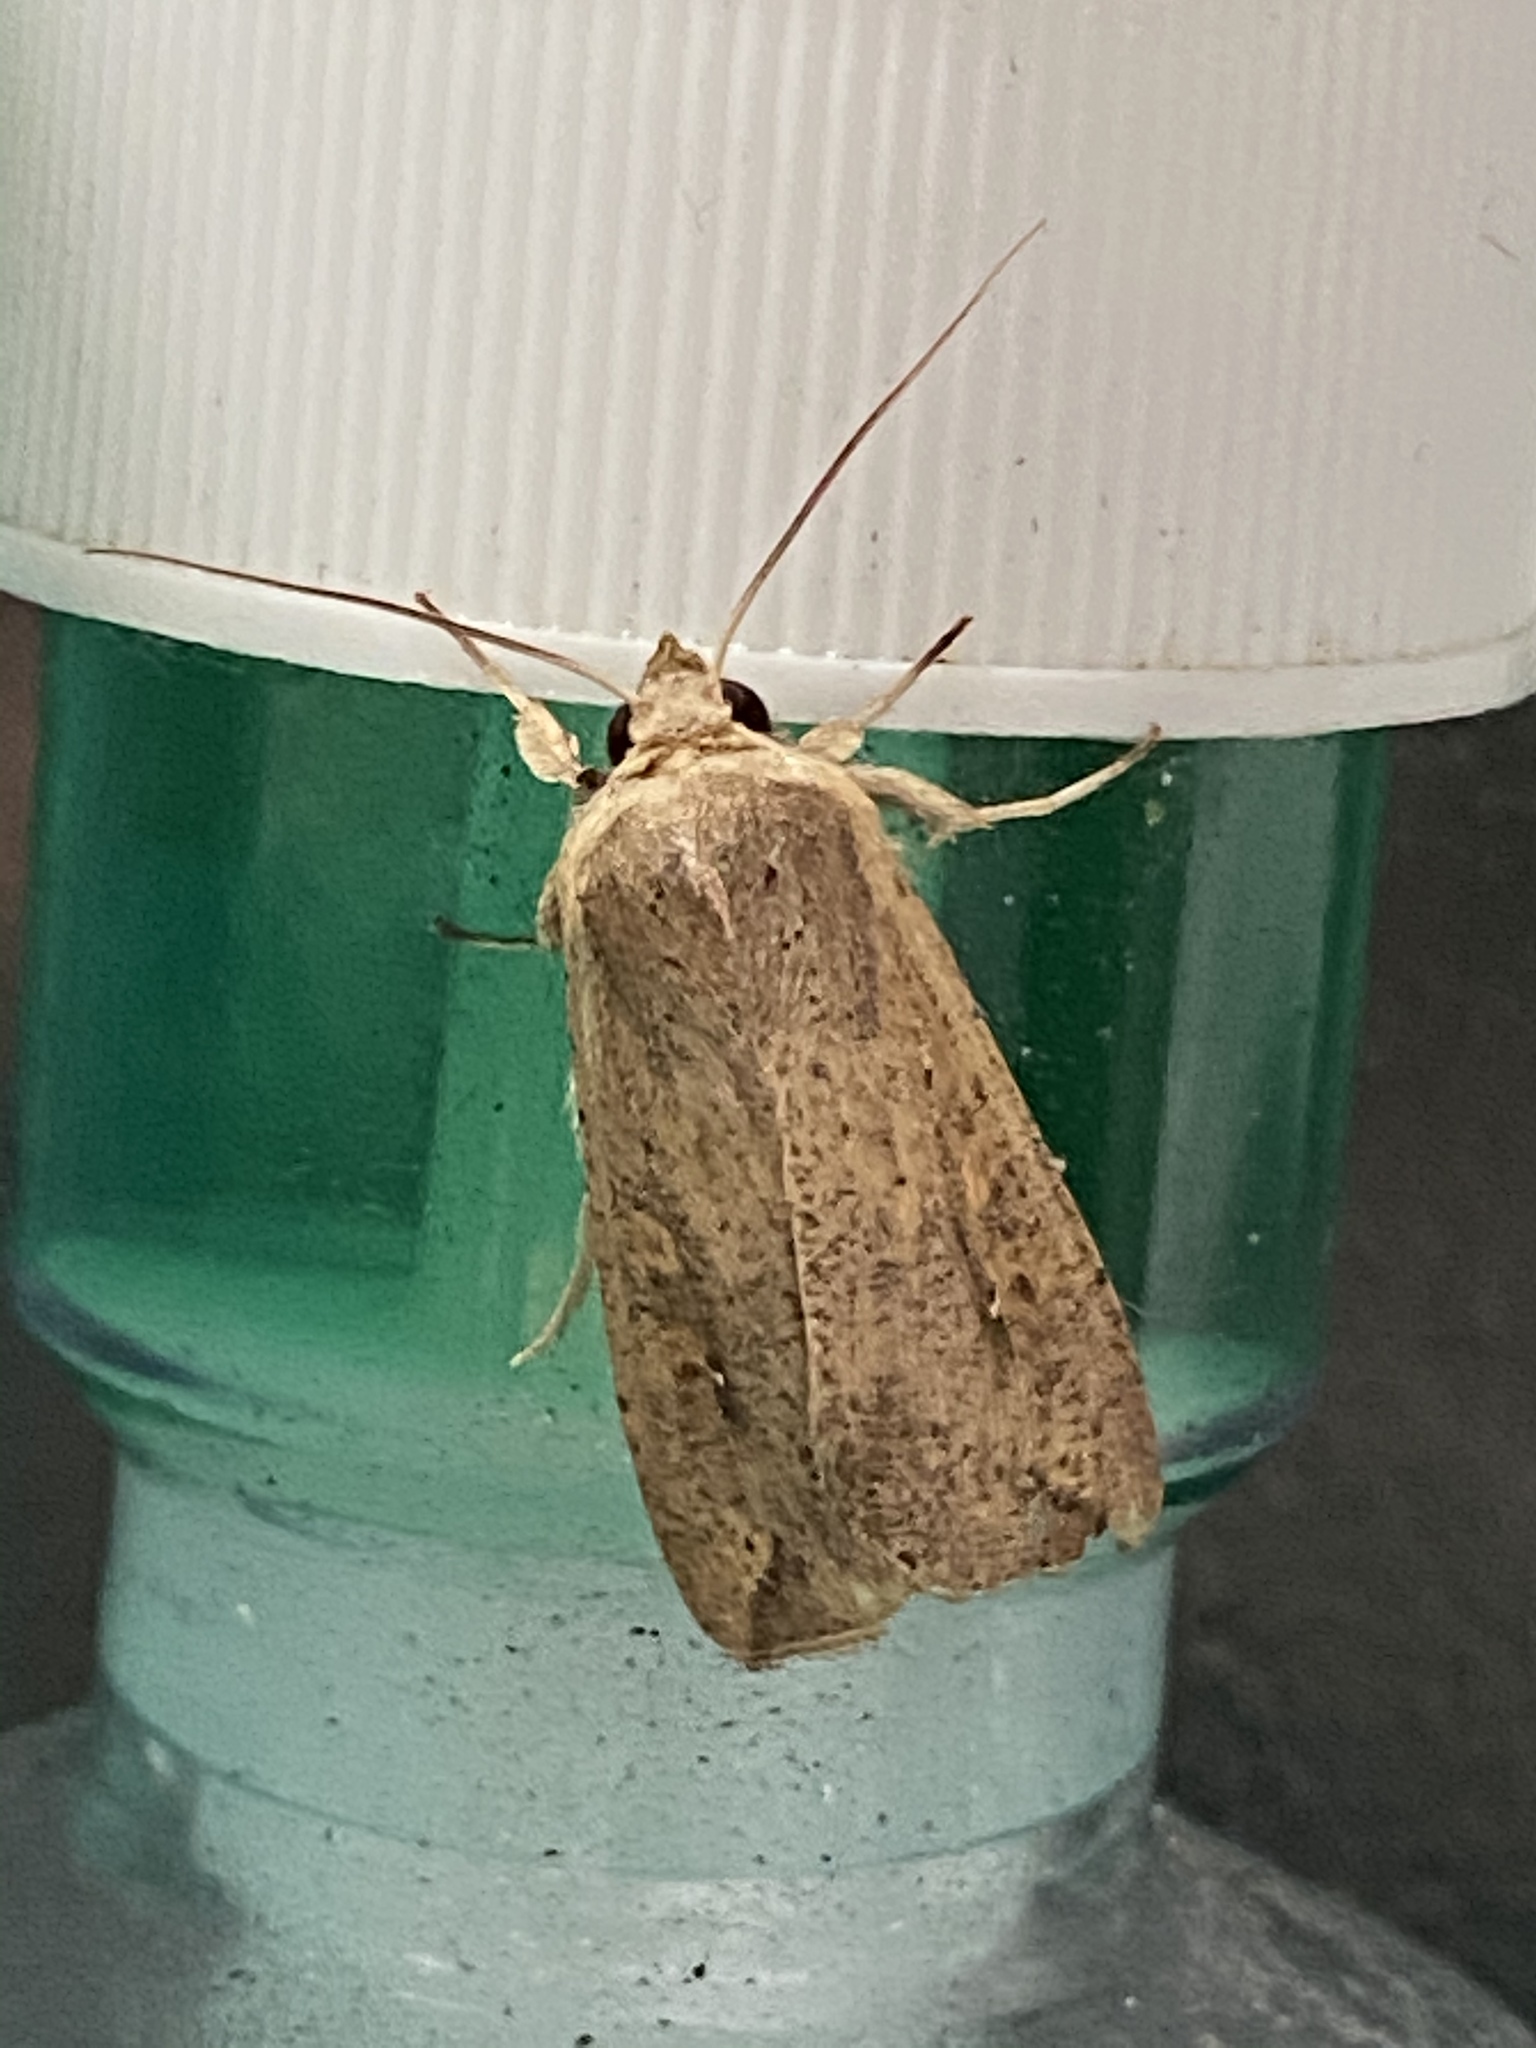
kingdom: Animalia
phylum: Arthropoda
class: Insecta
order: Lepidoptera
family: Noctuidae
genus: Mythimna
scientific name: Mythimna unipuncta
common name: White-speck
